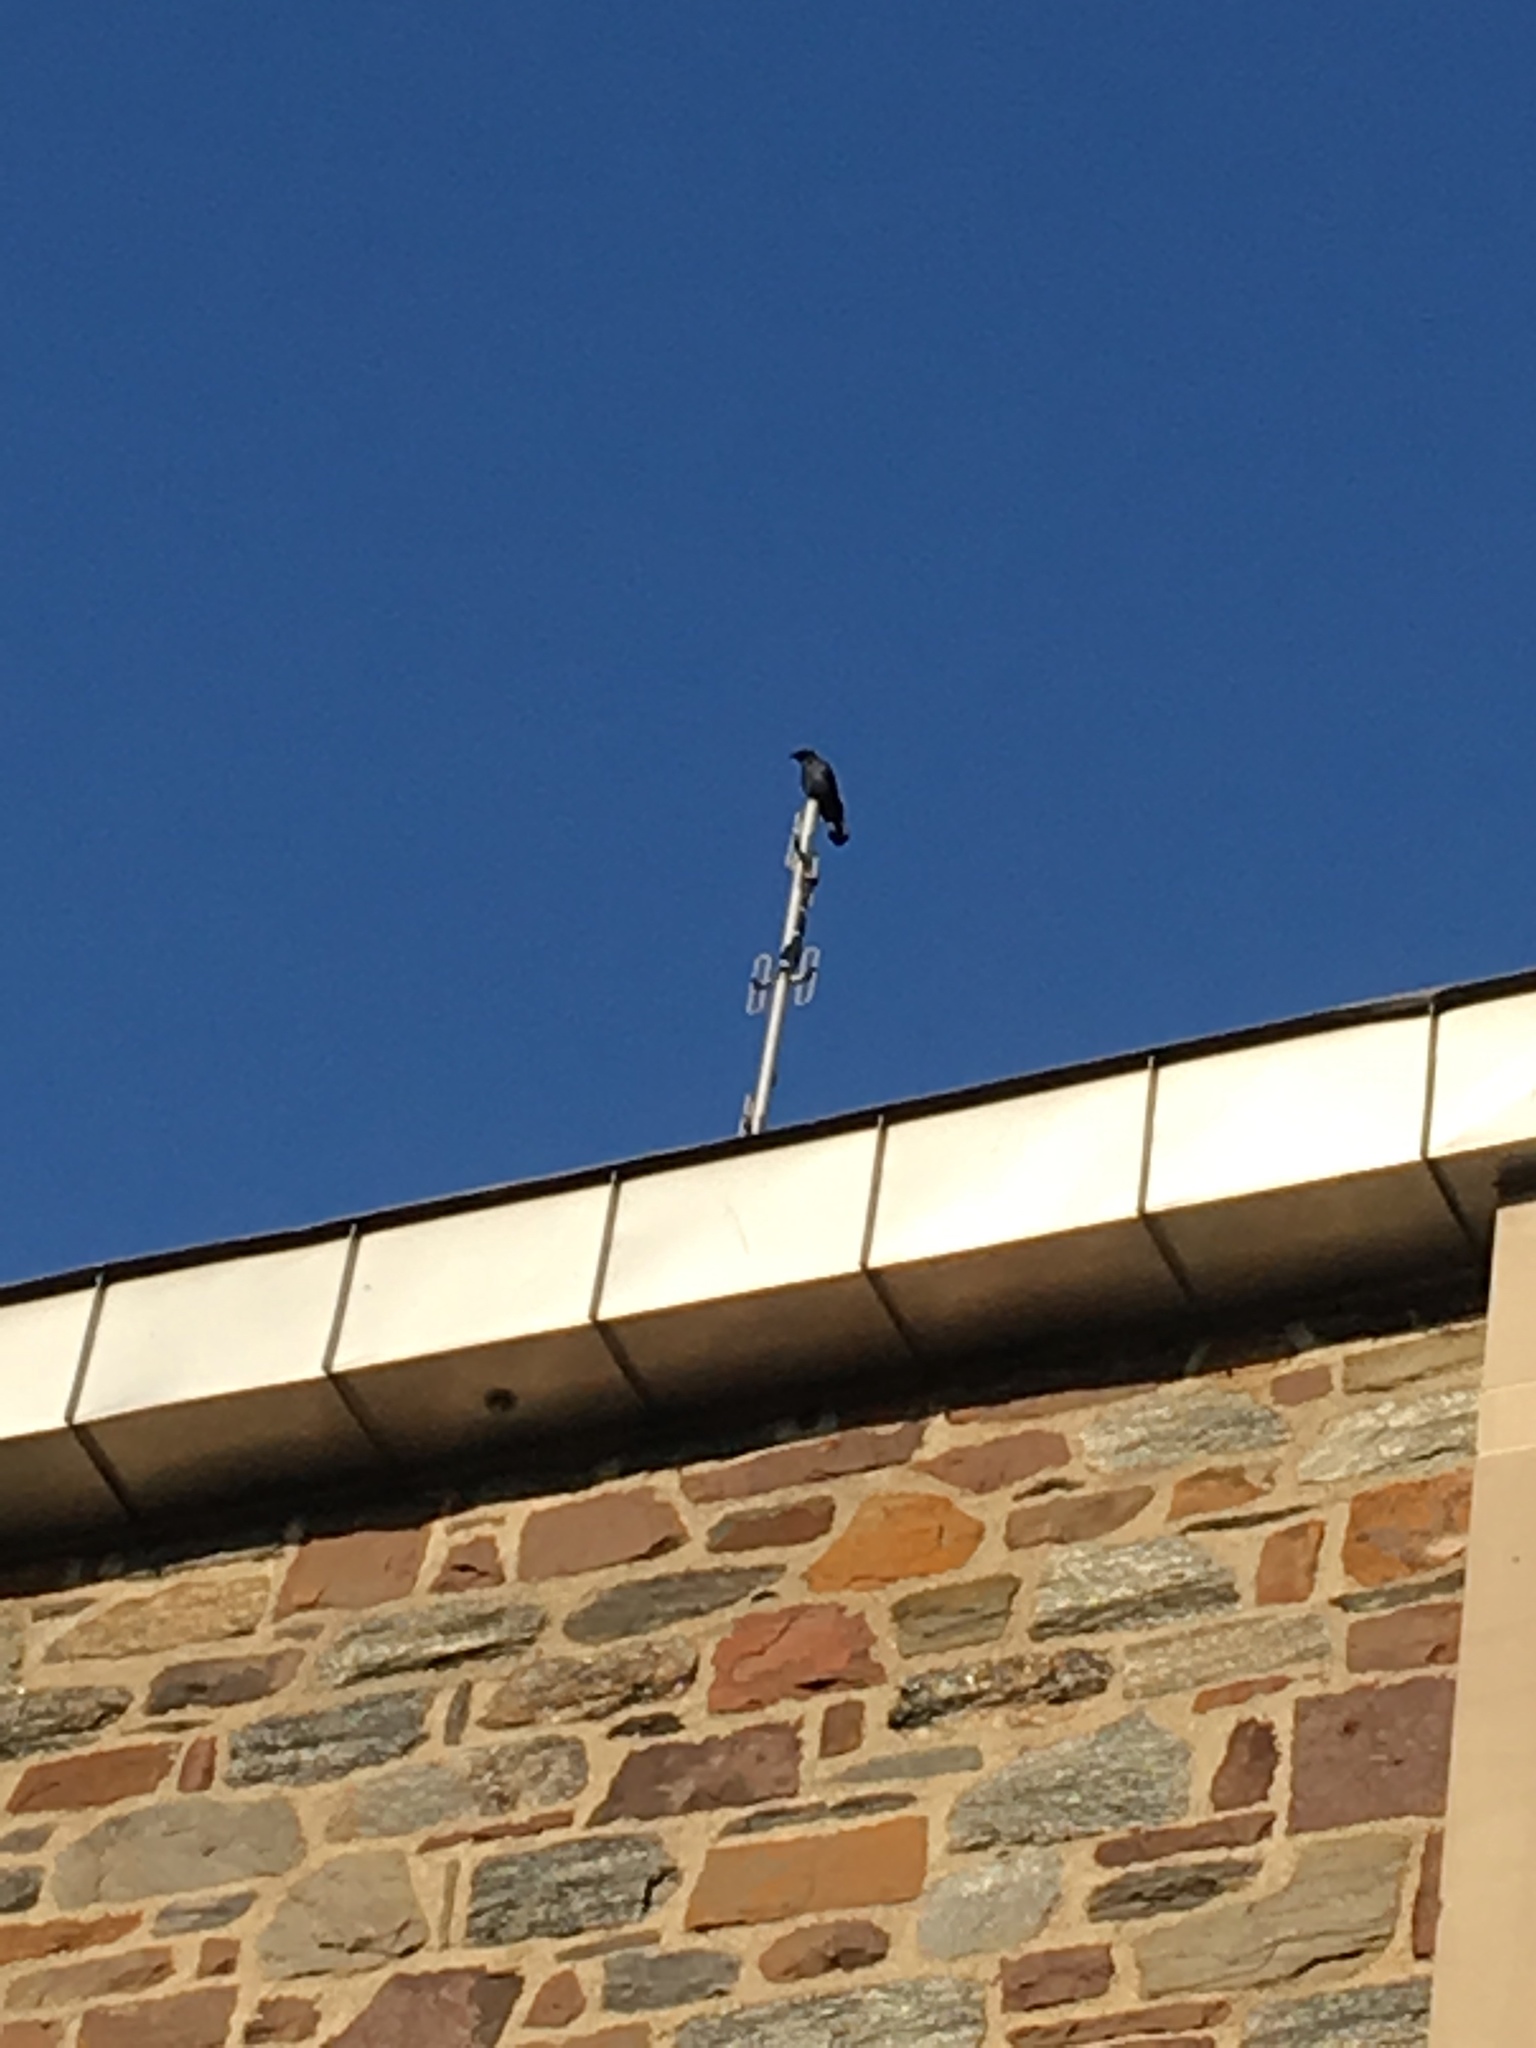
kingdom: Animalia
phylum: Chordata
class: Aves
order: Passeriformes
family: Corvidae
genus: Corvus
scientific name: Corvus ossifragus
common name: Fish crow
